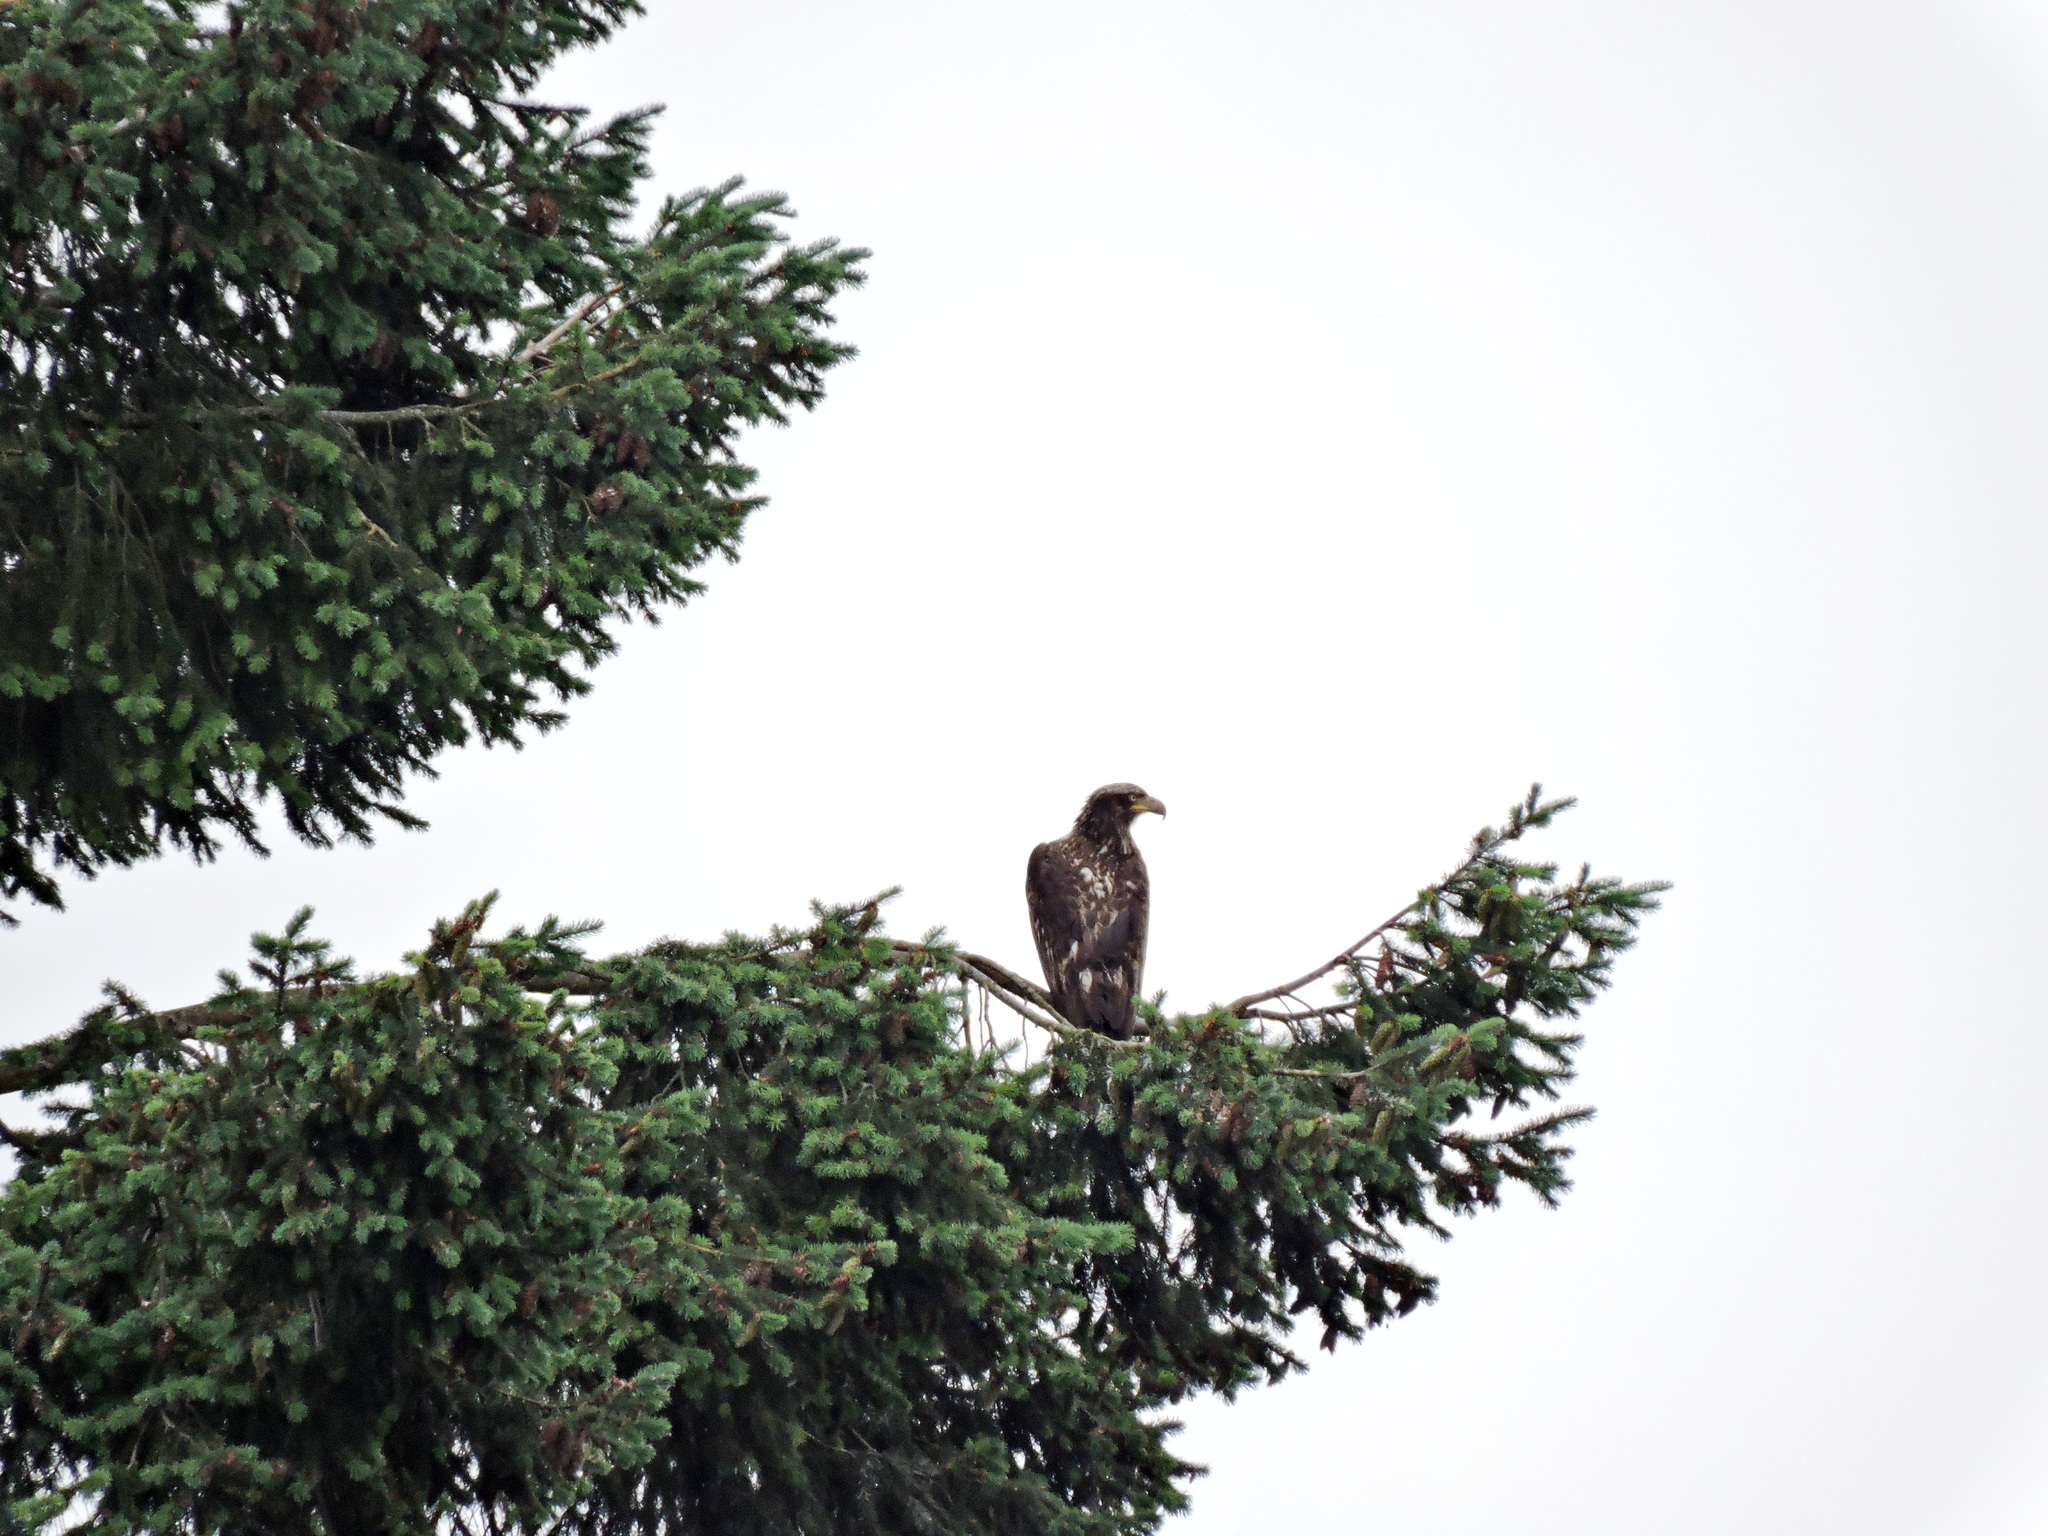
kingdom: Animalia
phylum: Chordata
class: Aves
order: Accipitriformes
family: Accipitridae
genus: Haliaeetus
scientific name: Haliaeetus leucocephalus
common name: Bald eagle
